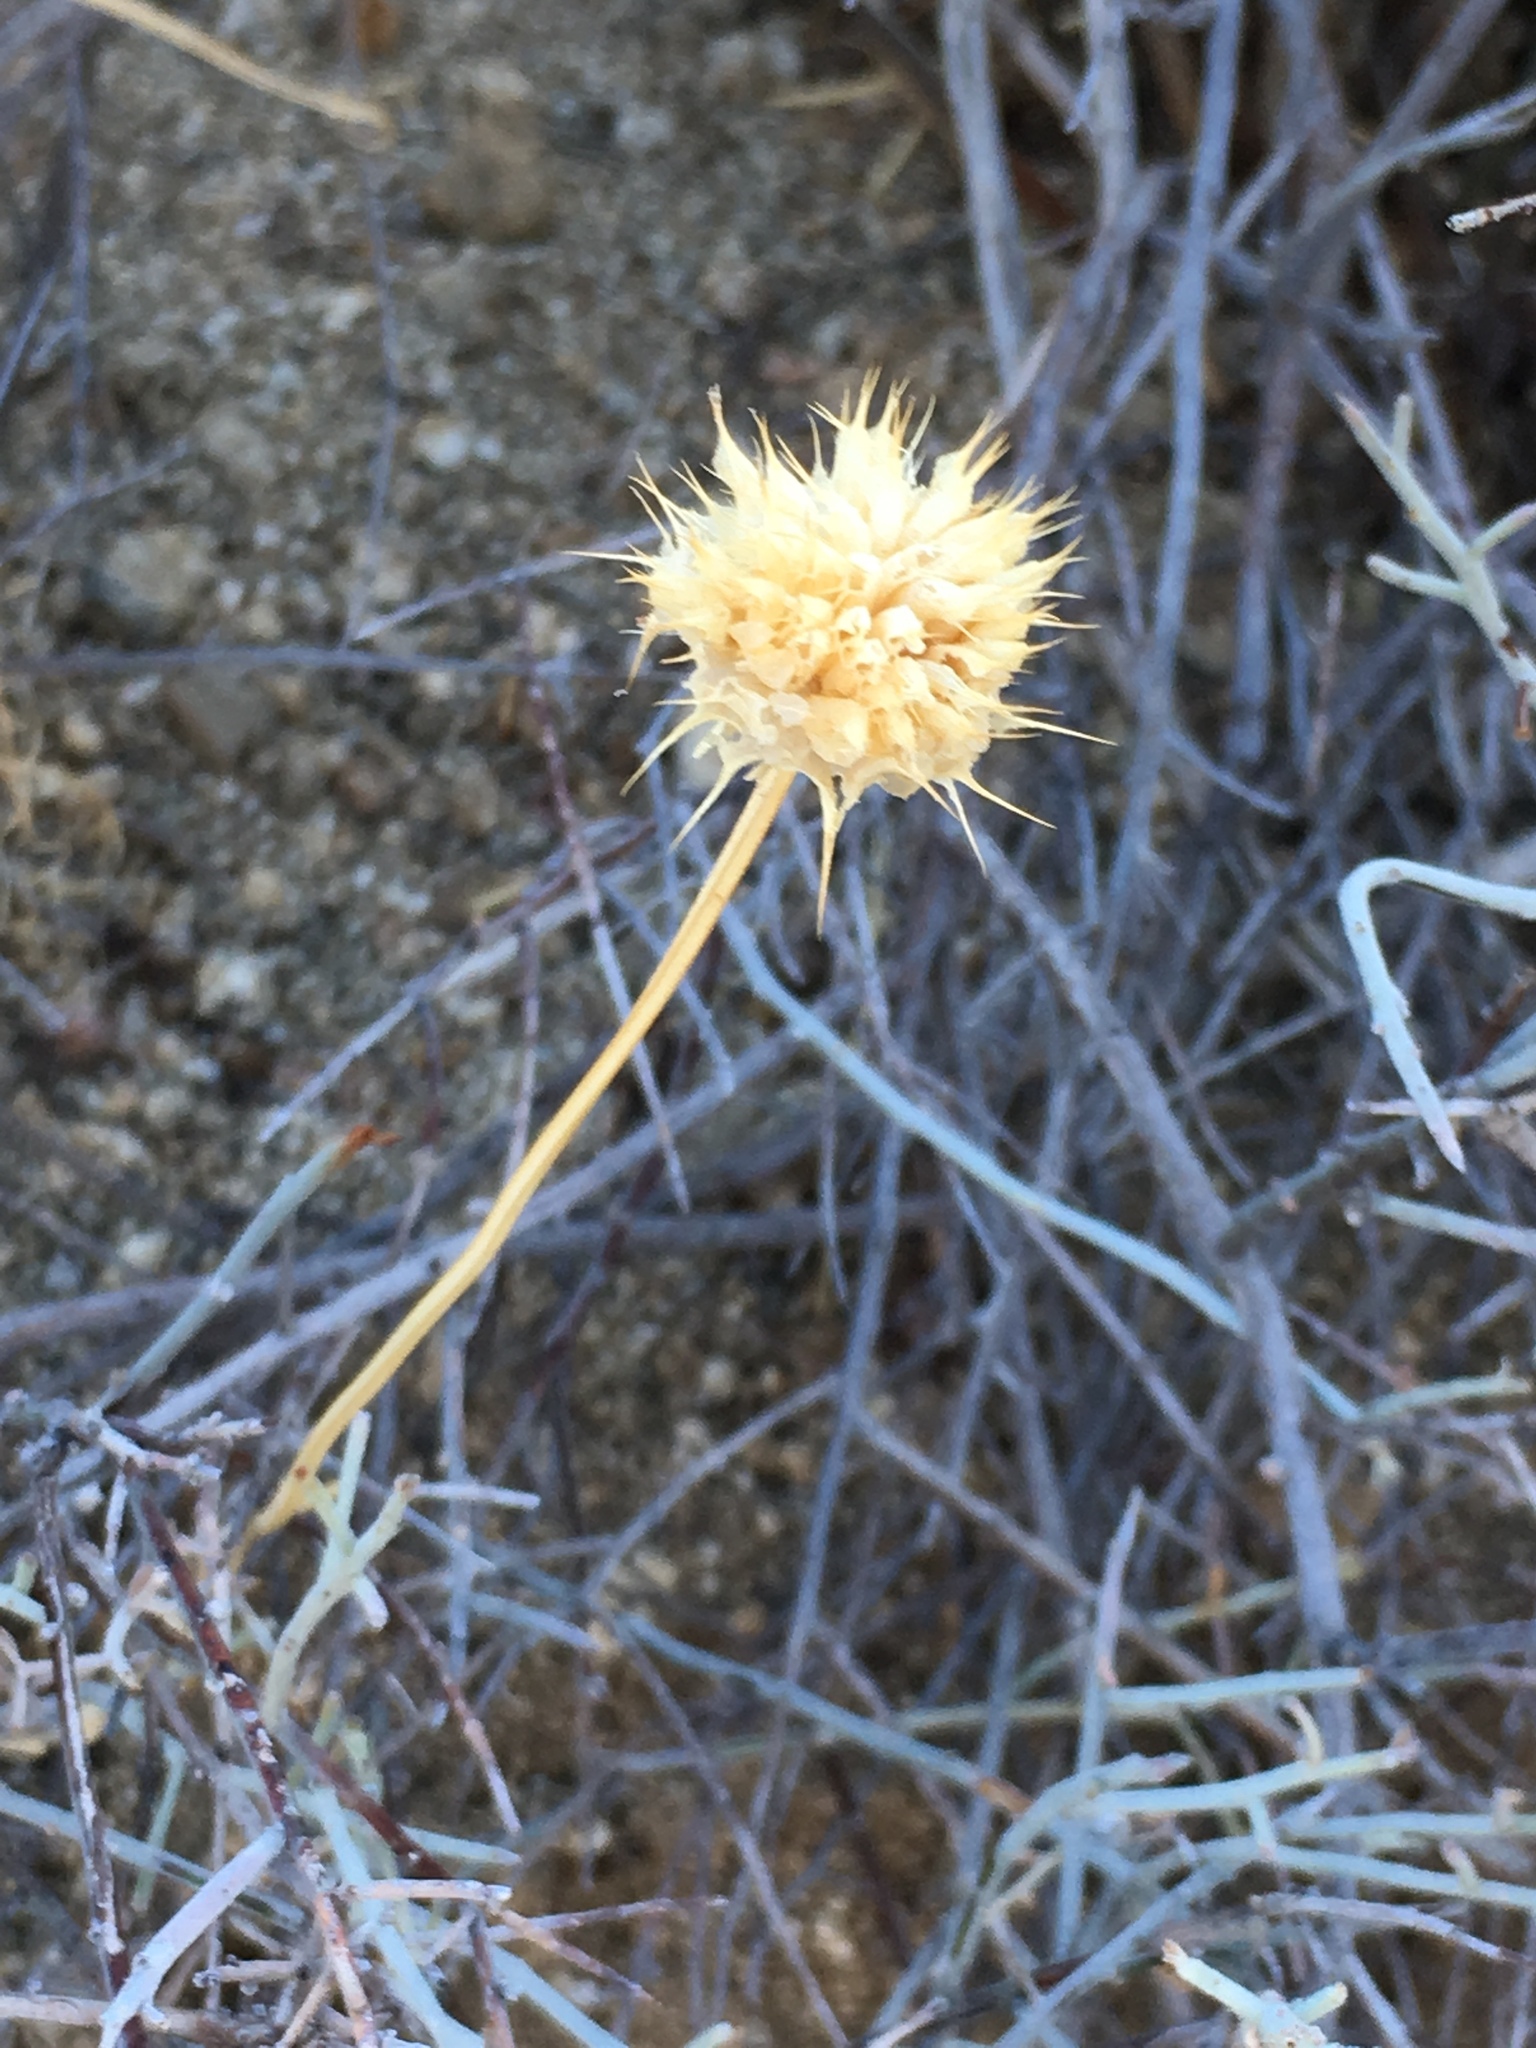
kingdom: Plantae
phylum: Tracheophyta
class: Magnoliopsida
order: Lamiales
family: Lamiaceae
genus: Salvia
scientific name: Salvia columbariae
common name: Chia
